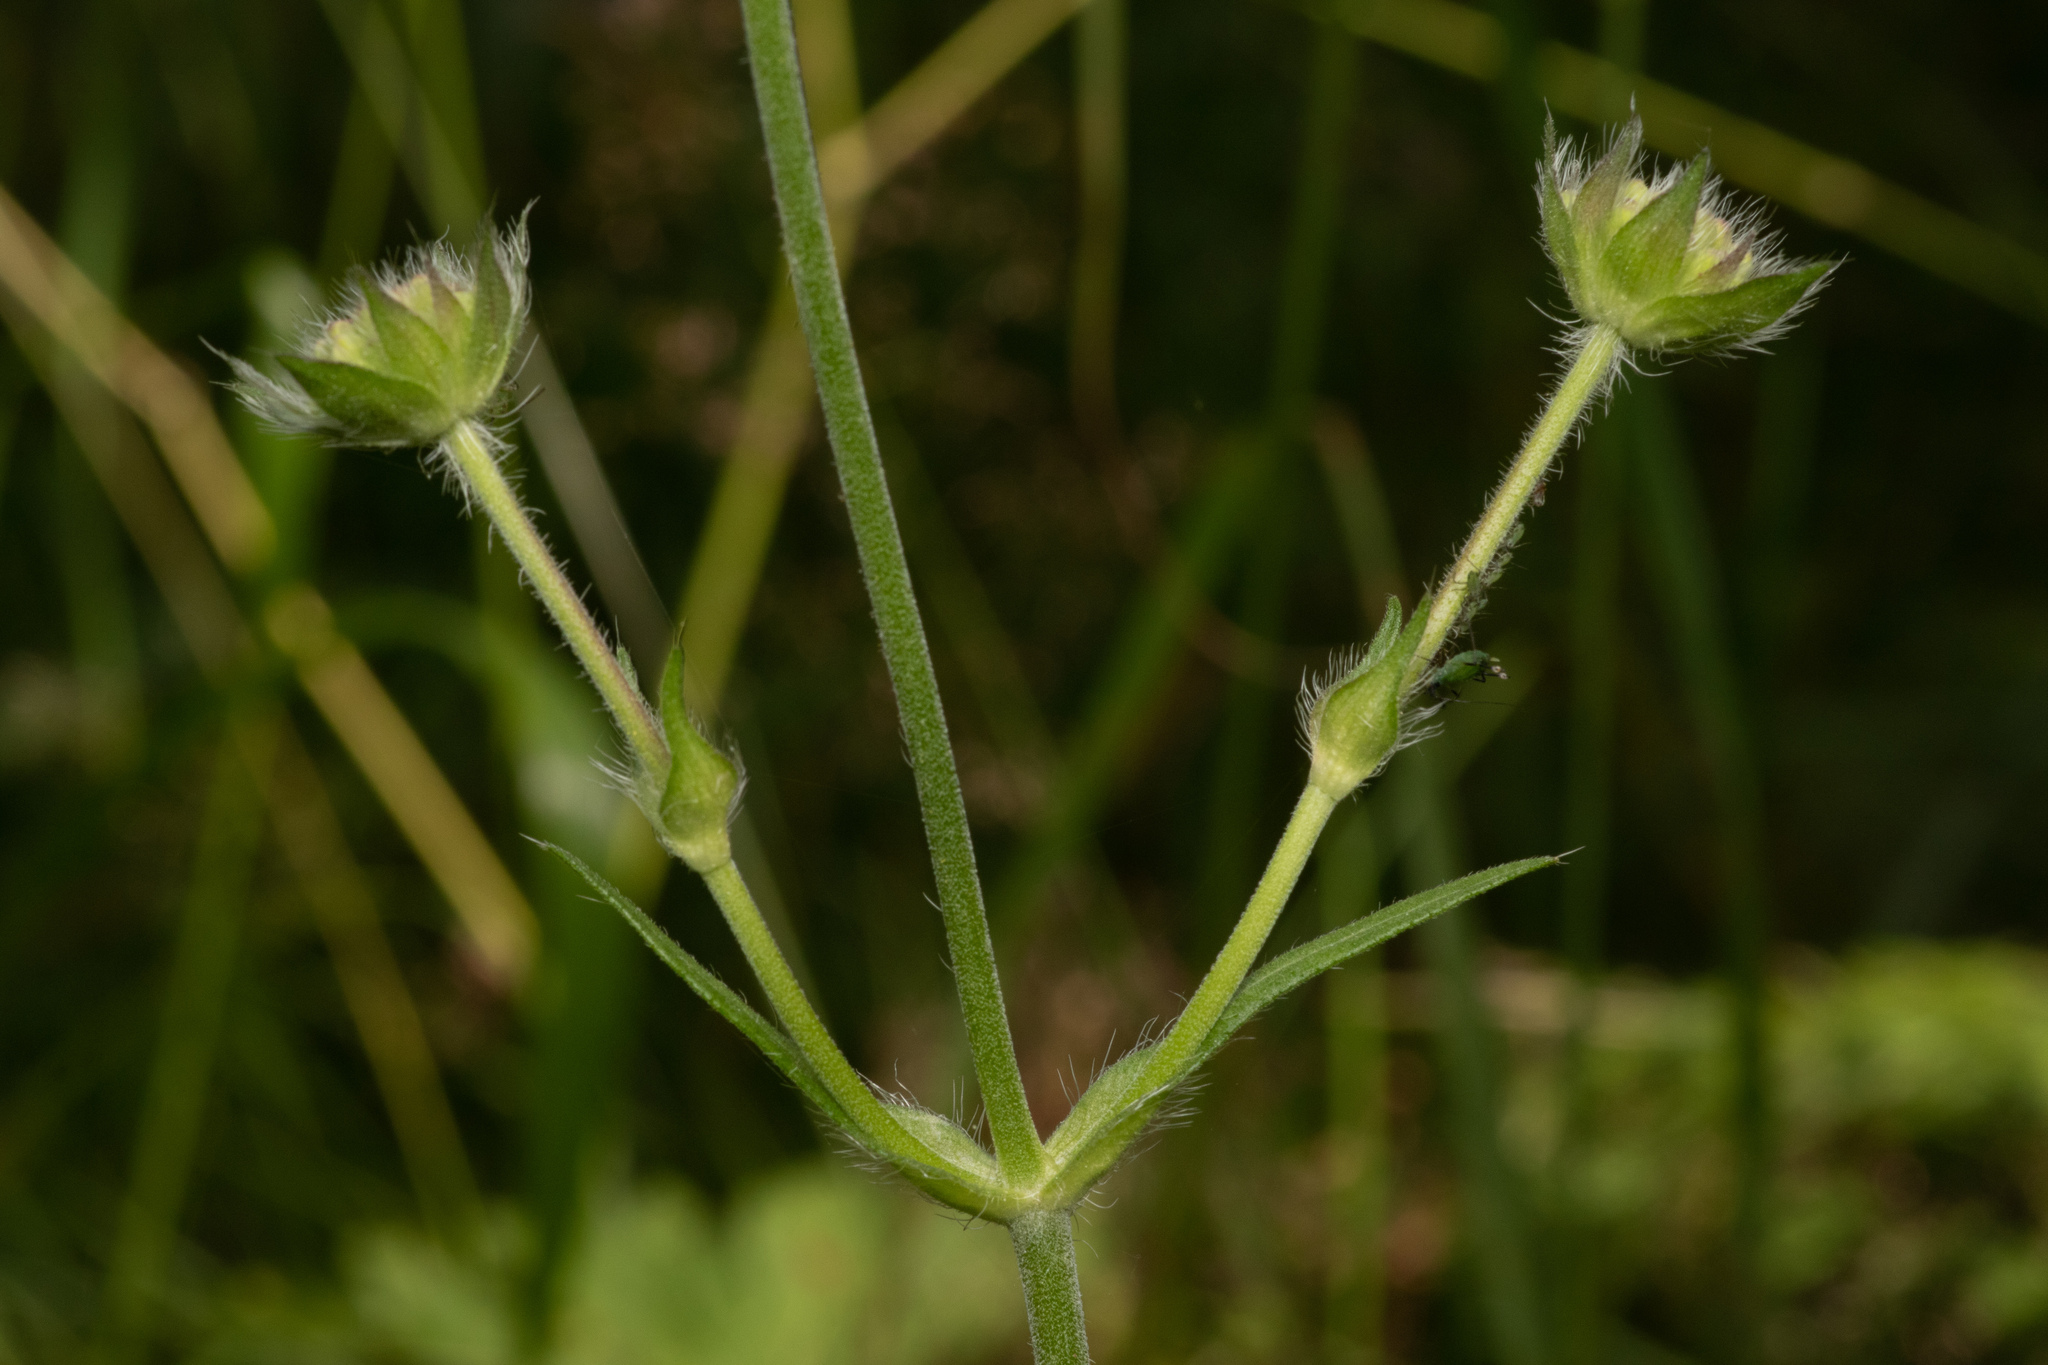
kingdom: Plantae
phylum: Tracheophyta
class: Magnoliopsida
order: Dipsacales
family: Caprifoliaceae
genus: Knautia
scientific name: Knautia arvensis
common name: Field scabiosa
